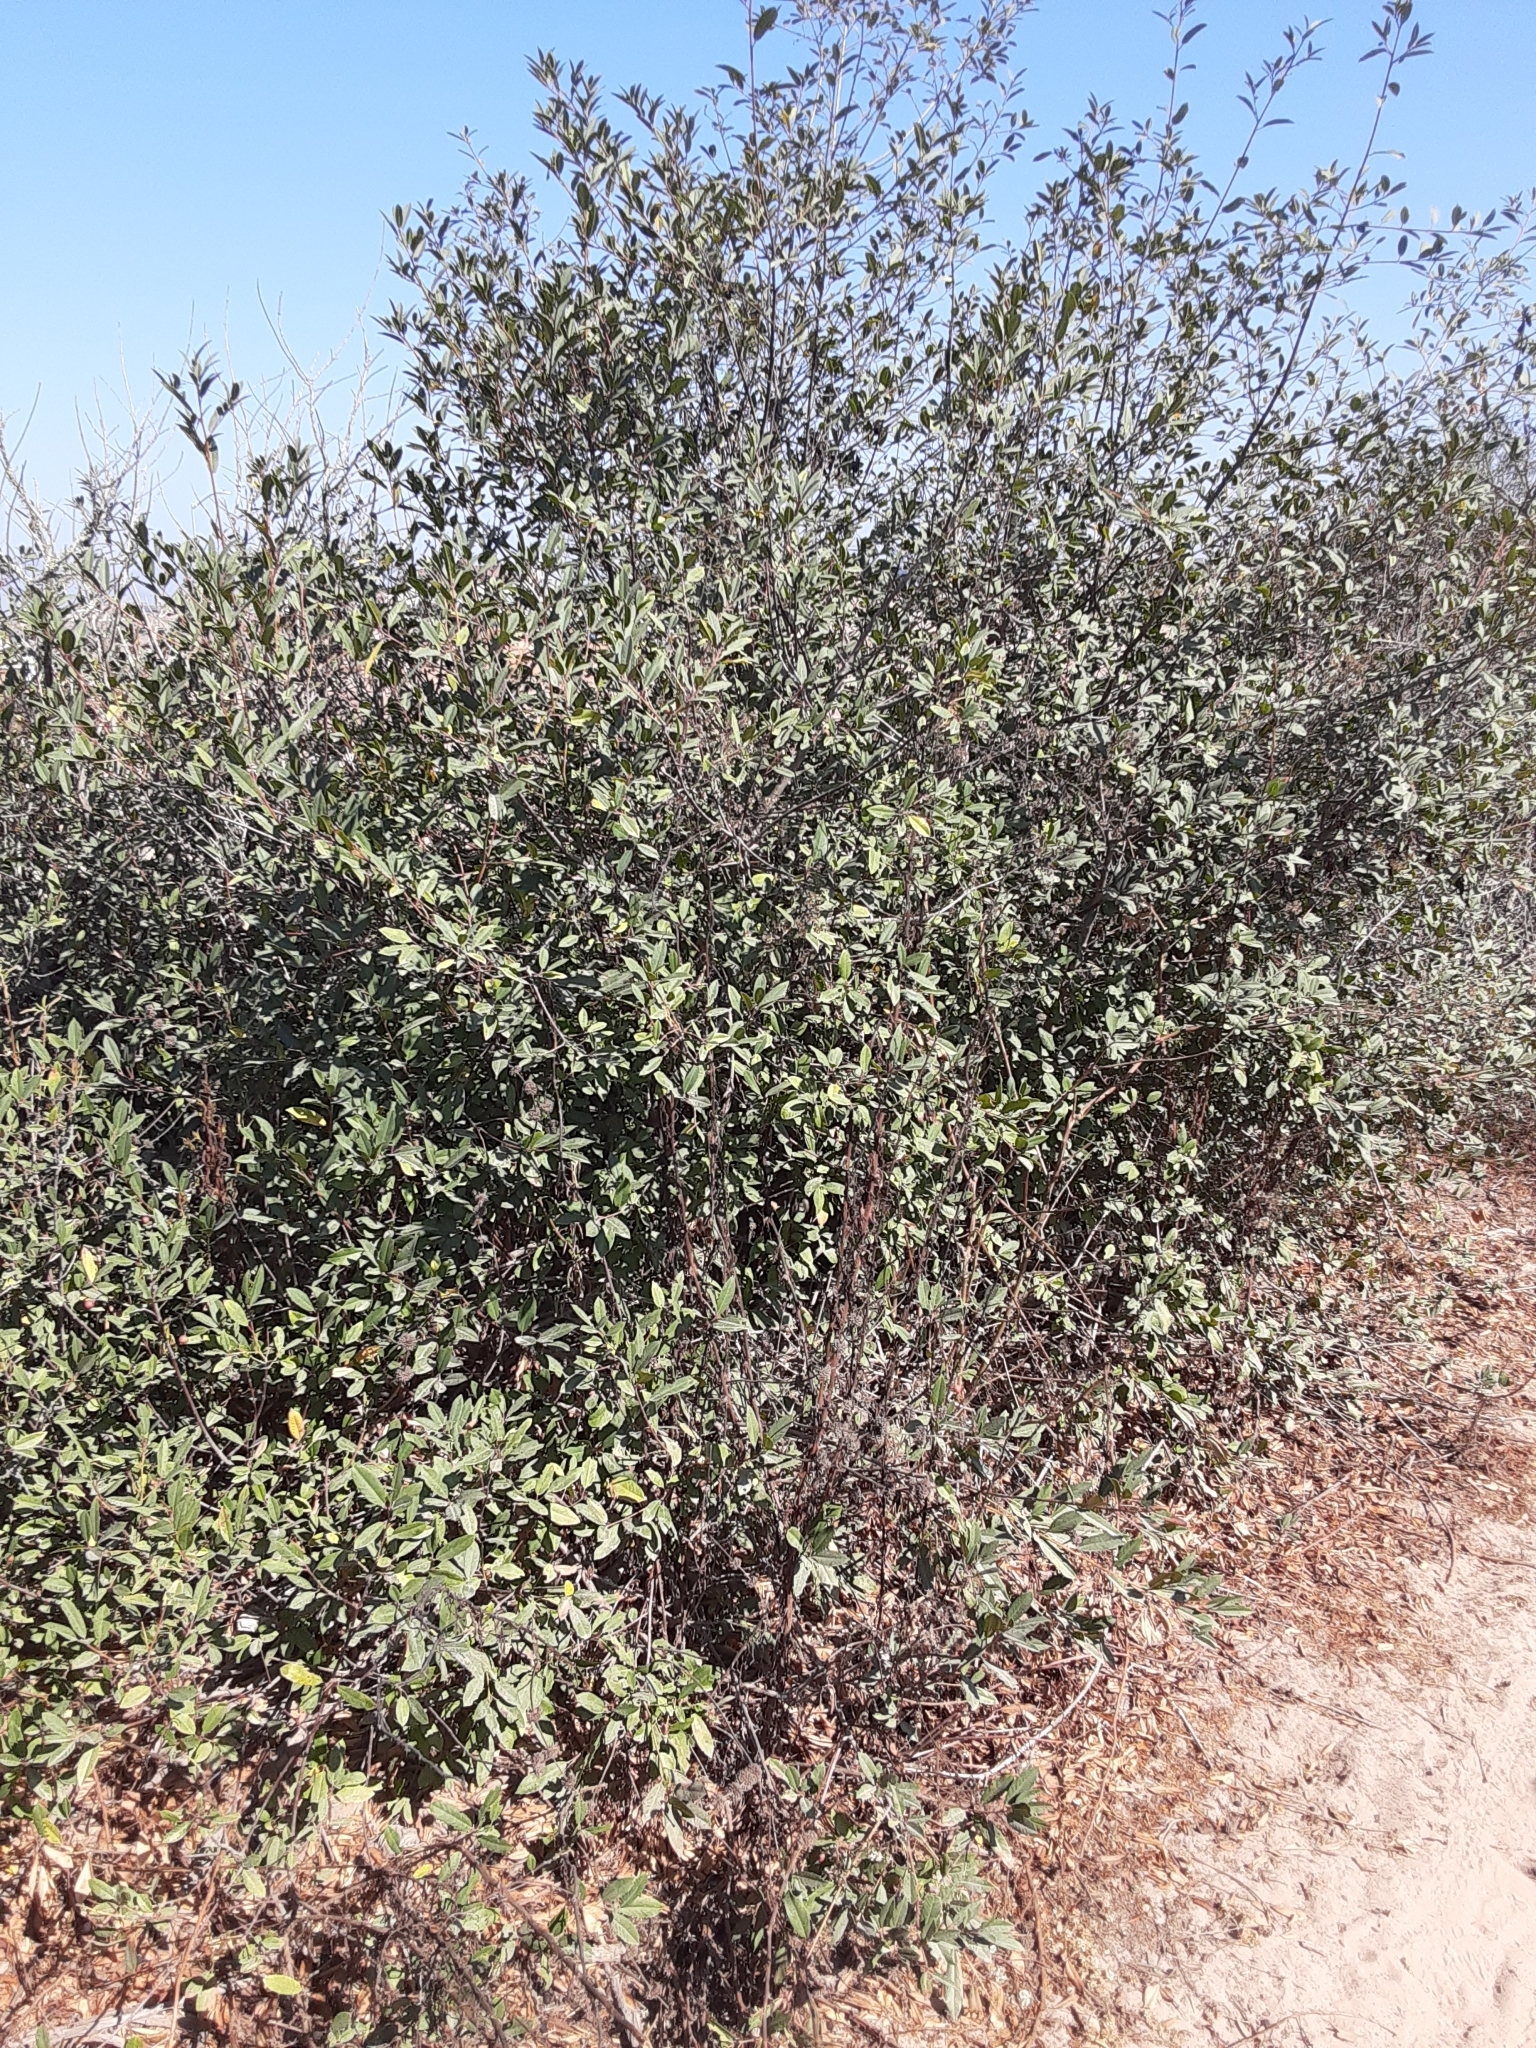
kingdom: Plantae
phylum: Tracheophyta
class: Magnoliopsida
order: Rosales
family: Rhamnaceae
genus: Frangula
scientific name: Frangula californica
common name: California buckthorn
